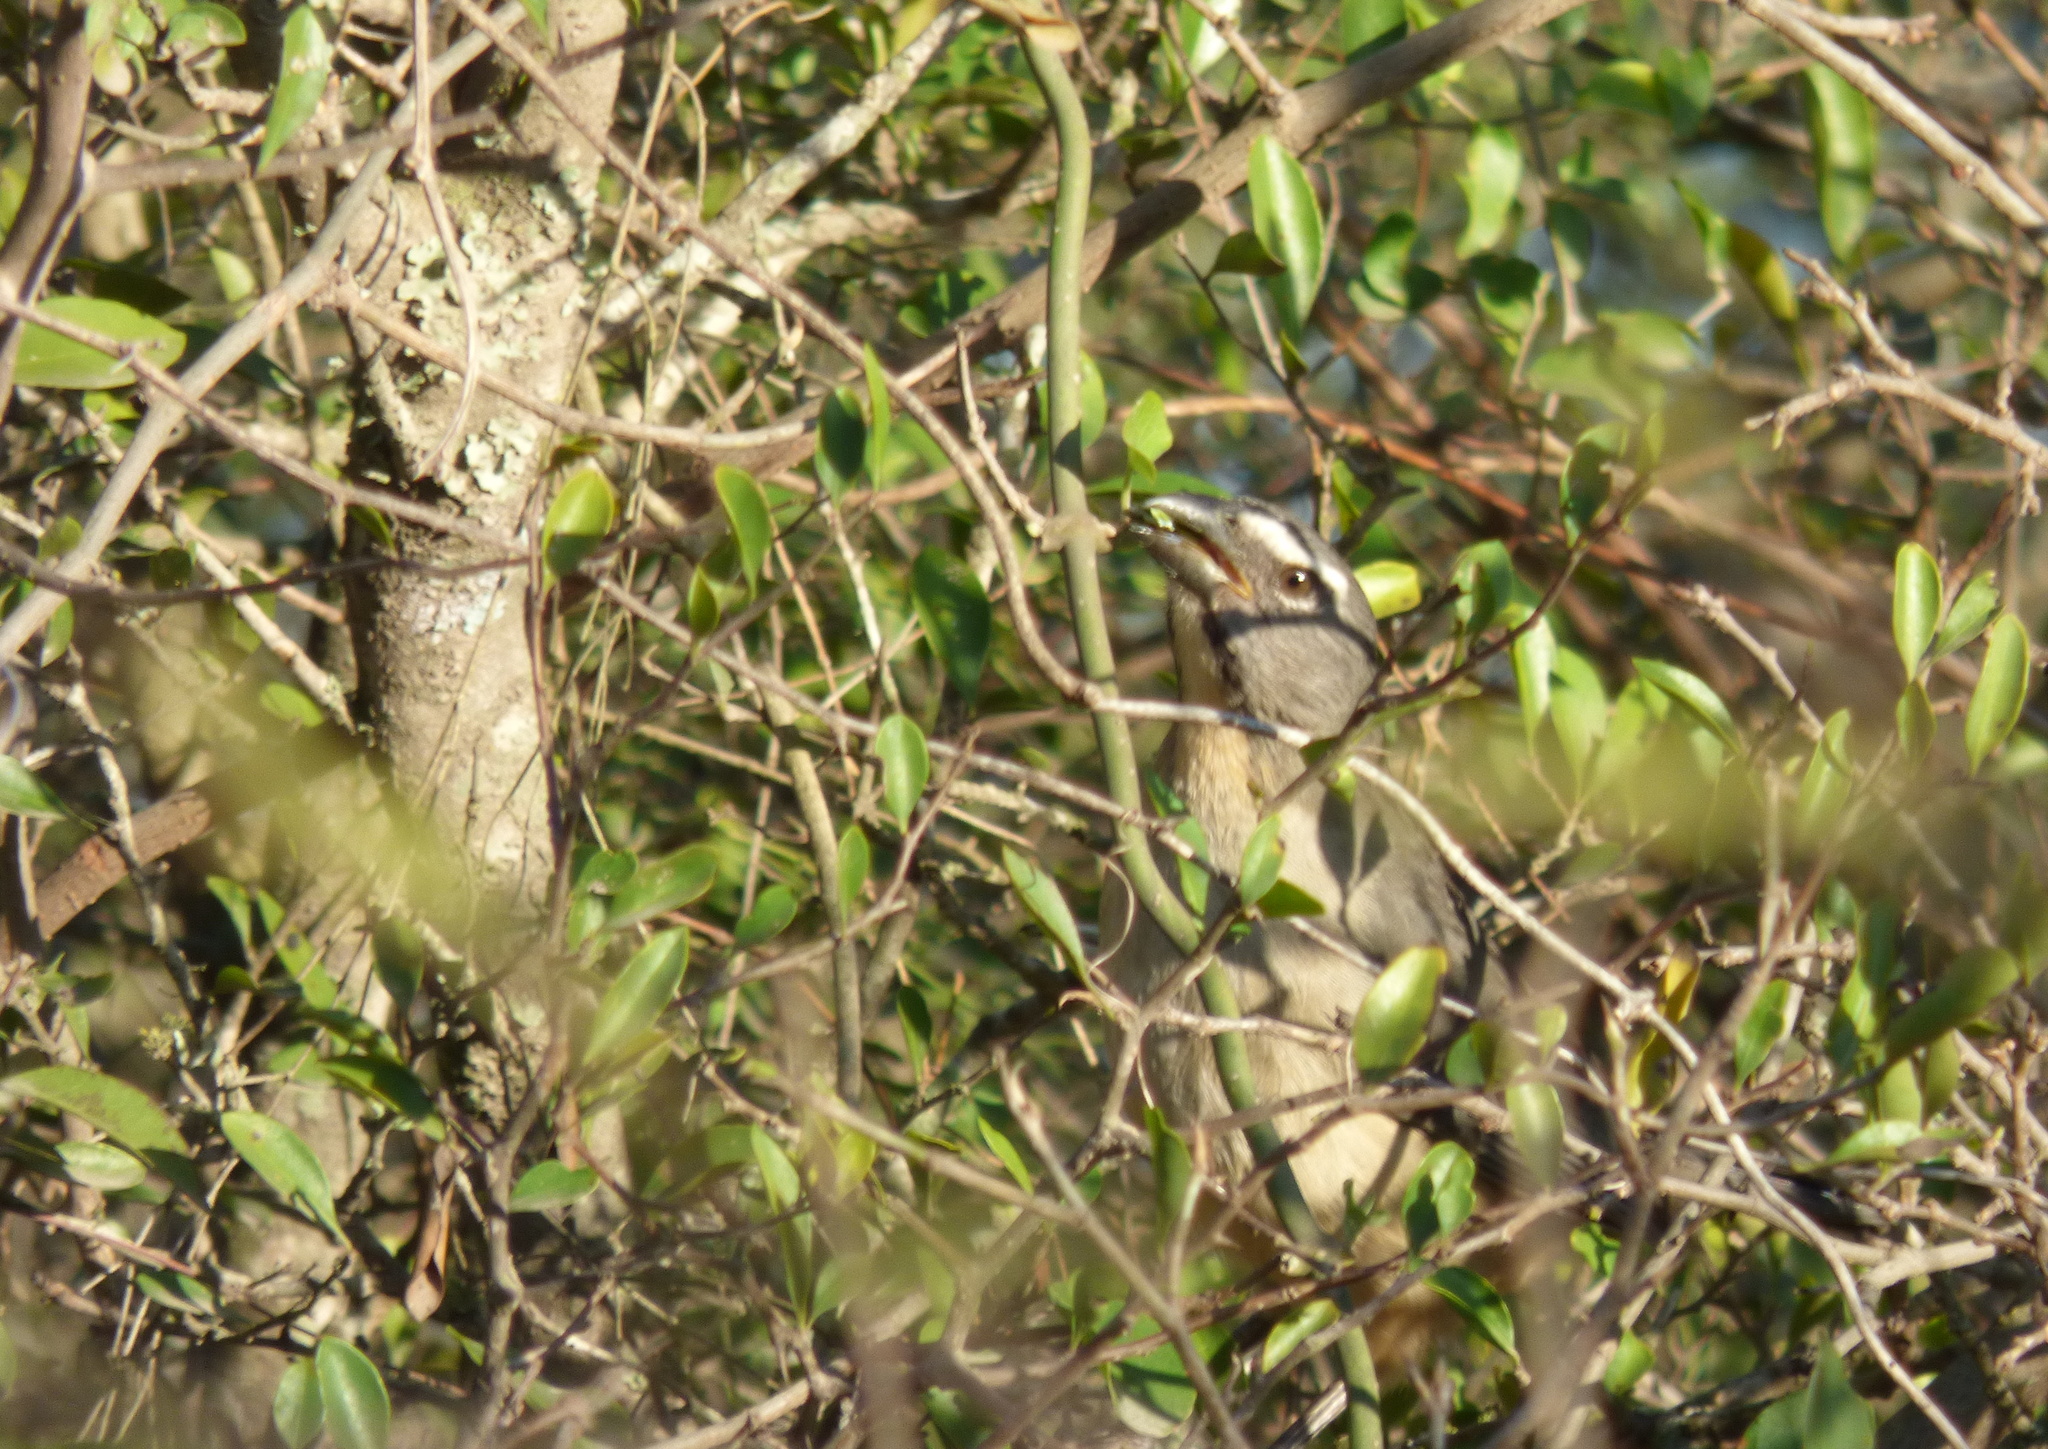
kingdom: Animalia
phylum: Chordata
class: Aves
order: Passeriformes
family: Thraupidae
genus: Saltator
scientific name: Saltator coerulescens
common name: Grayish saltator
